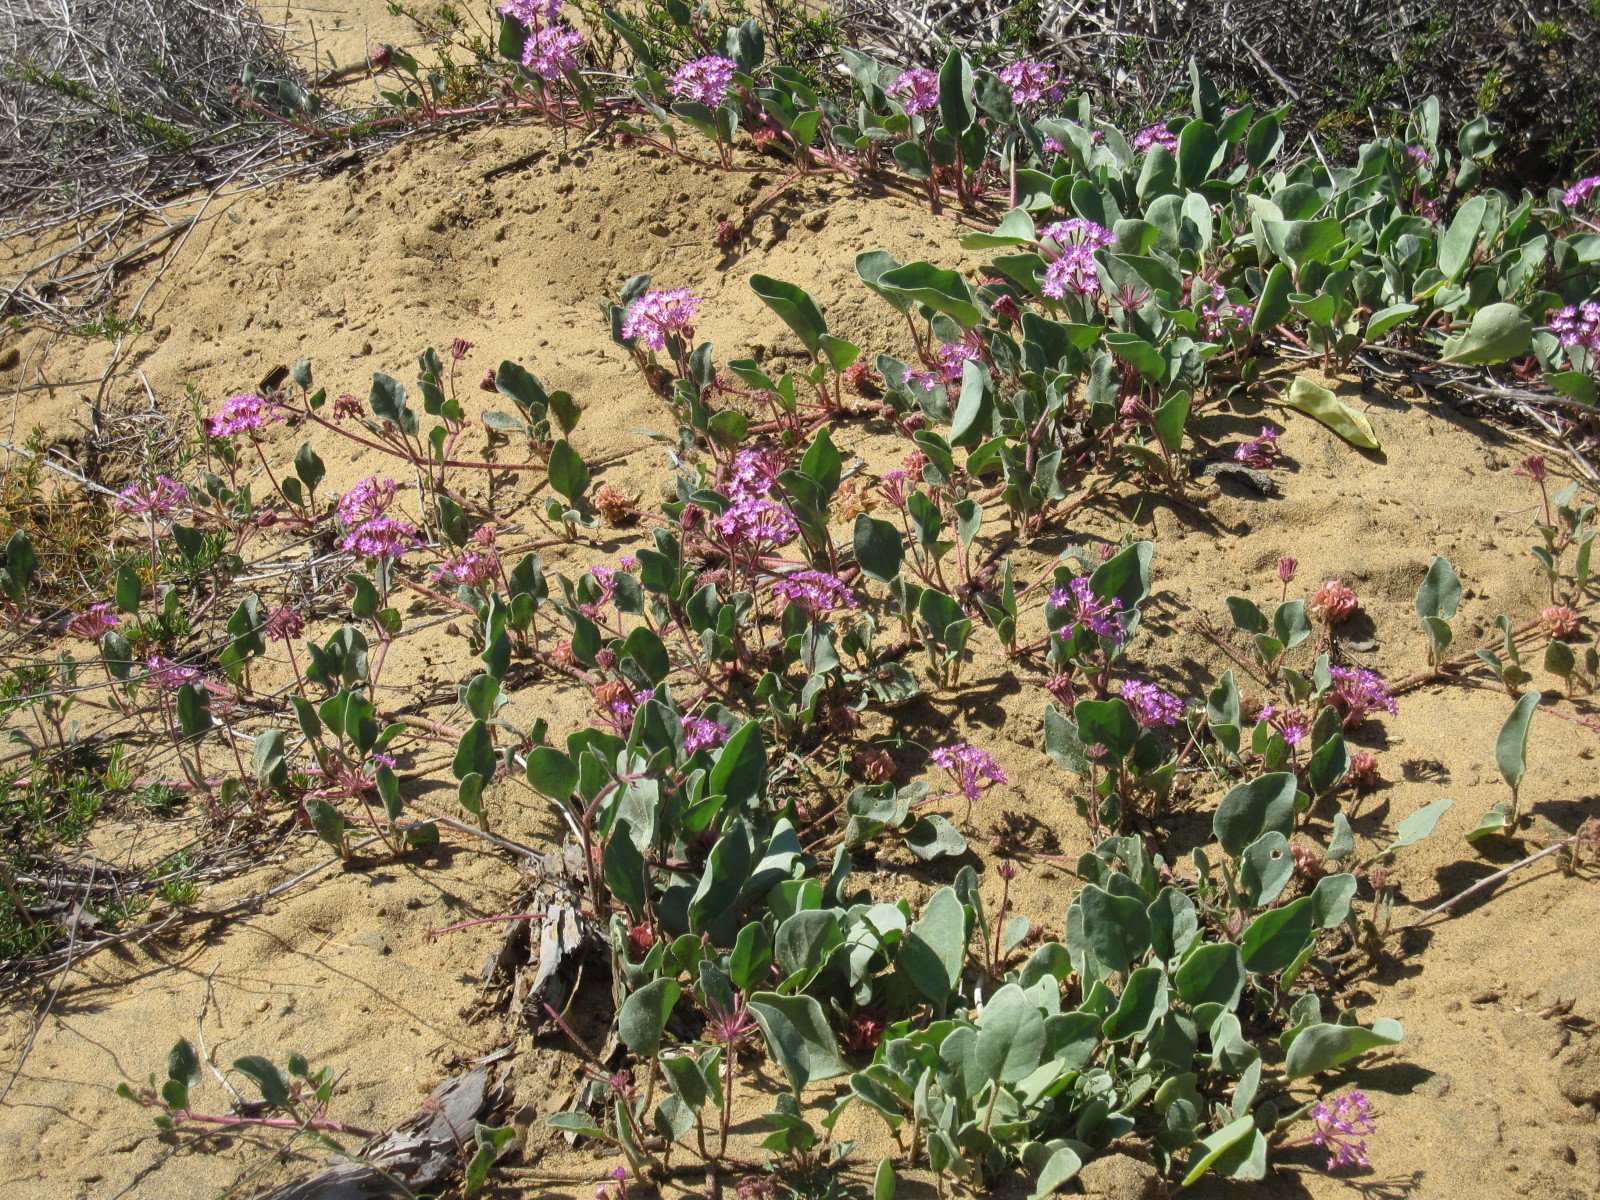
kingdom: Plantae
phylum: Tracheophyta
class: Magnoliopsida
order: Caryophyllales
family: Nyctaginaceae
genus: Abronia
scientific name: Abronia umbellata
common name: Sand-verbena
